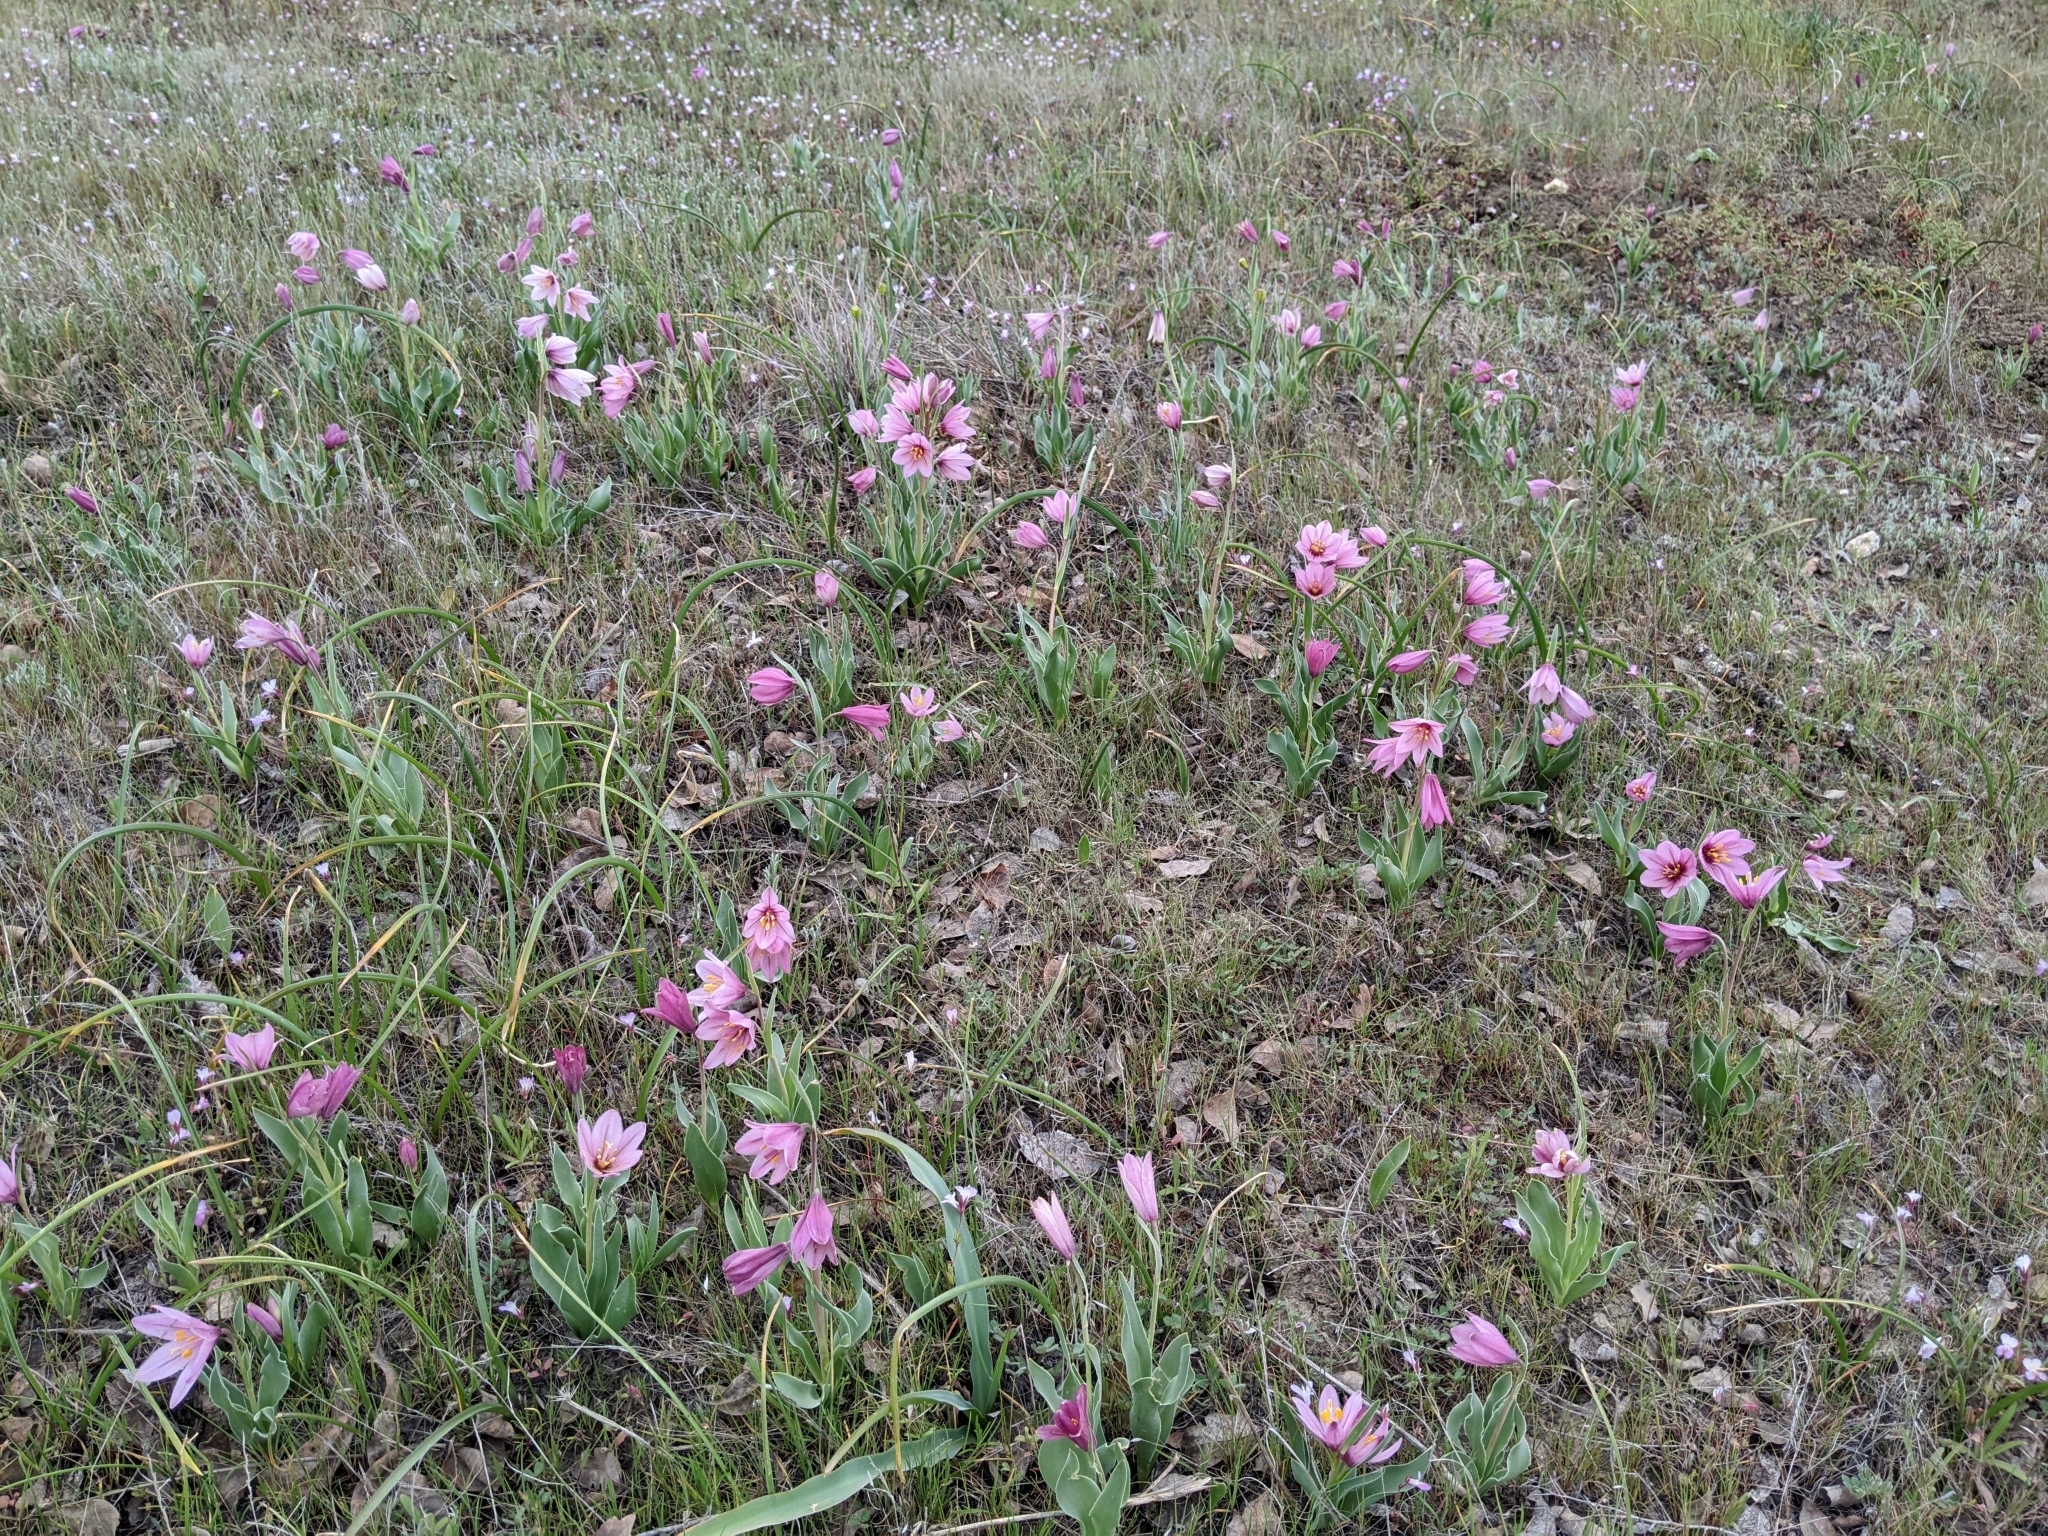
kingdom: Plantae
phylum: Tracheophyta
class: Liliopsida
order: Liliales
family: Liliaceae
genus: Fritillaria
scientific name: Fritillaria pluriflora
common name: Adobe-lily
